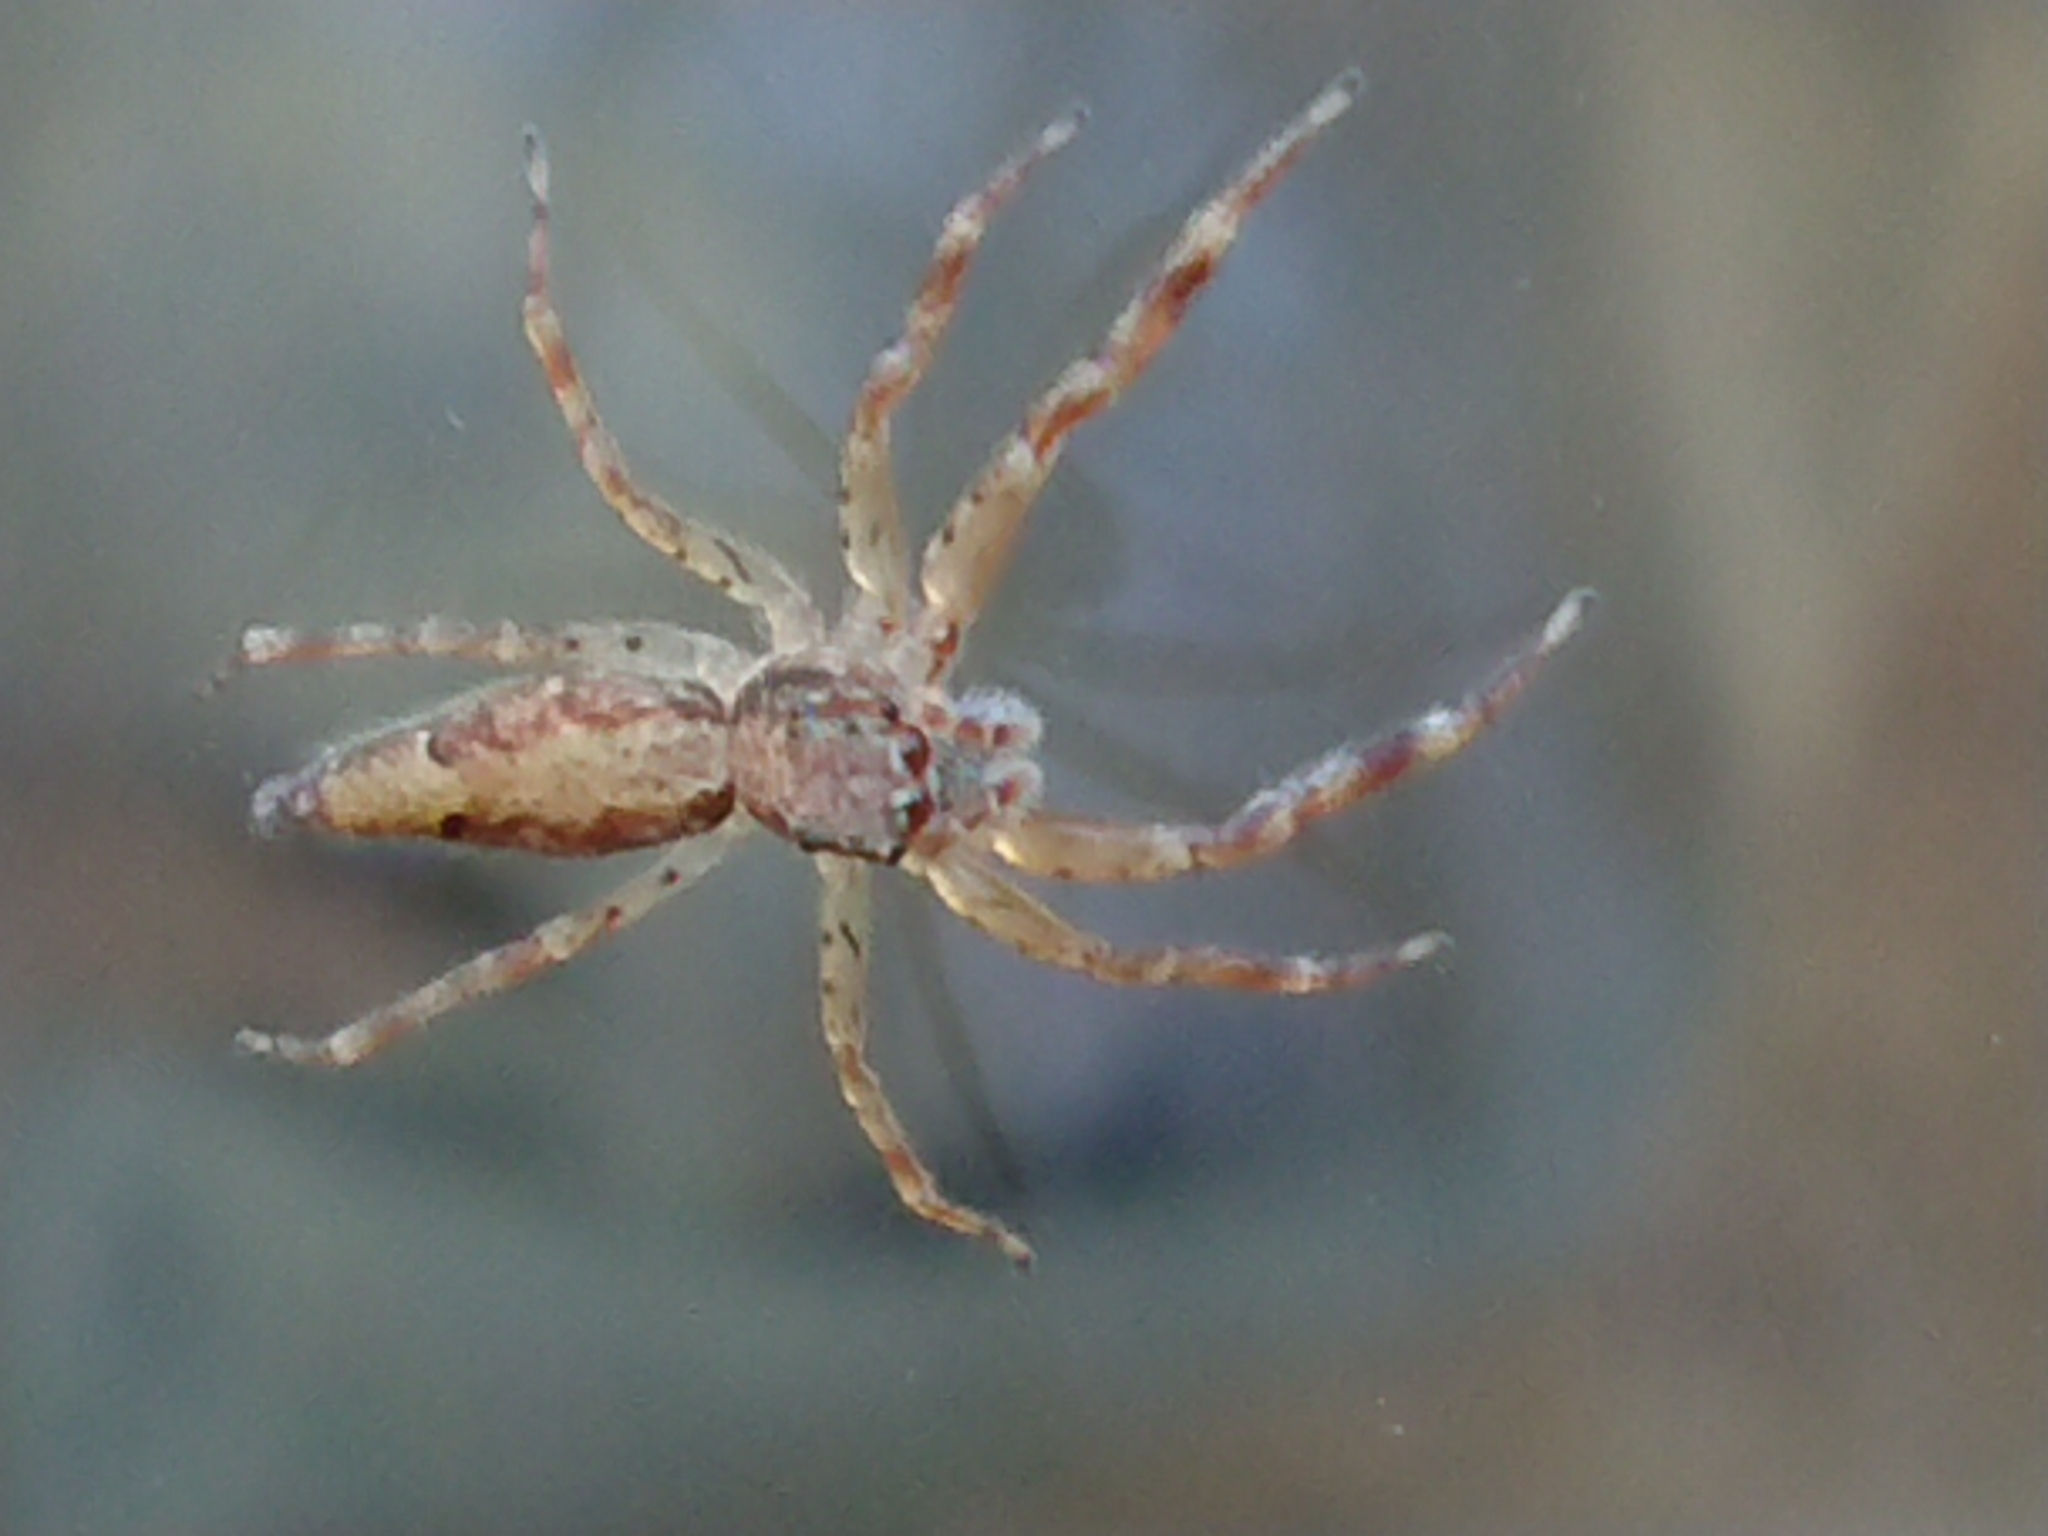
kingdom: Animalia
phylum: Arthropoda
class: Arachnida
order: Araneae
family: Salticidae
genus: Helpis
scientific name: Helpis minitabunda
